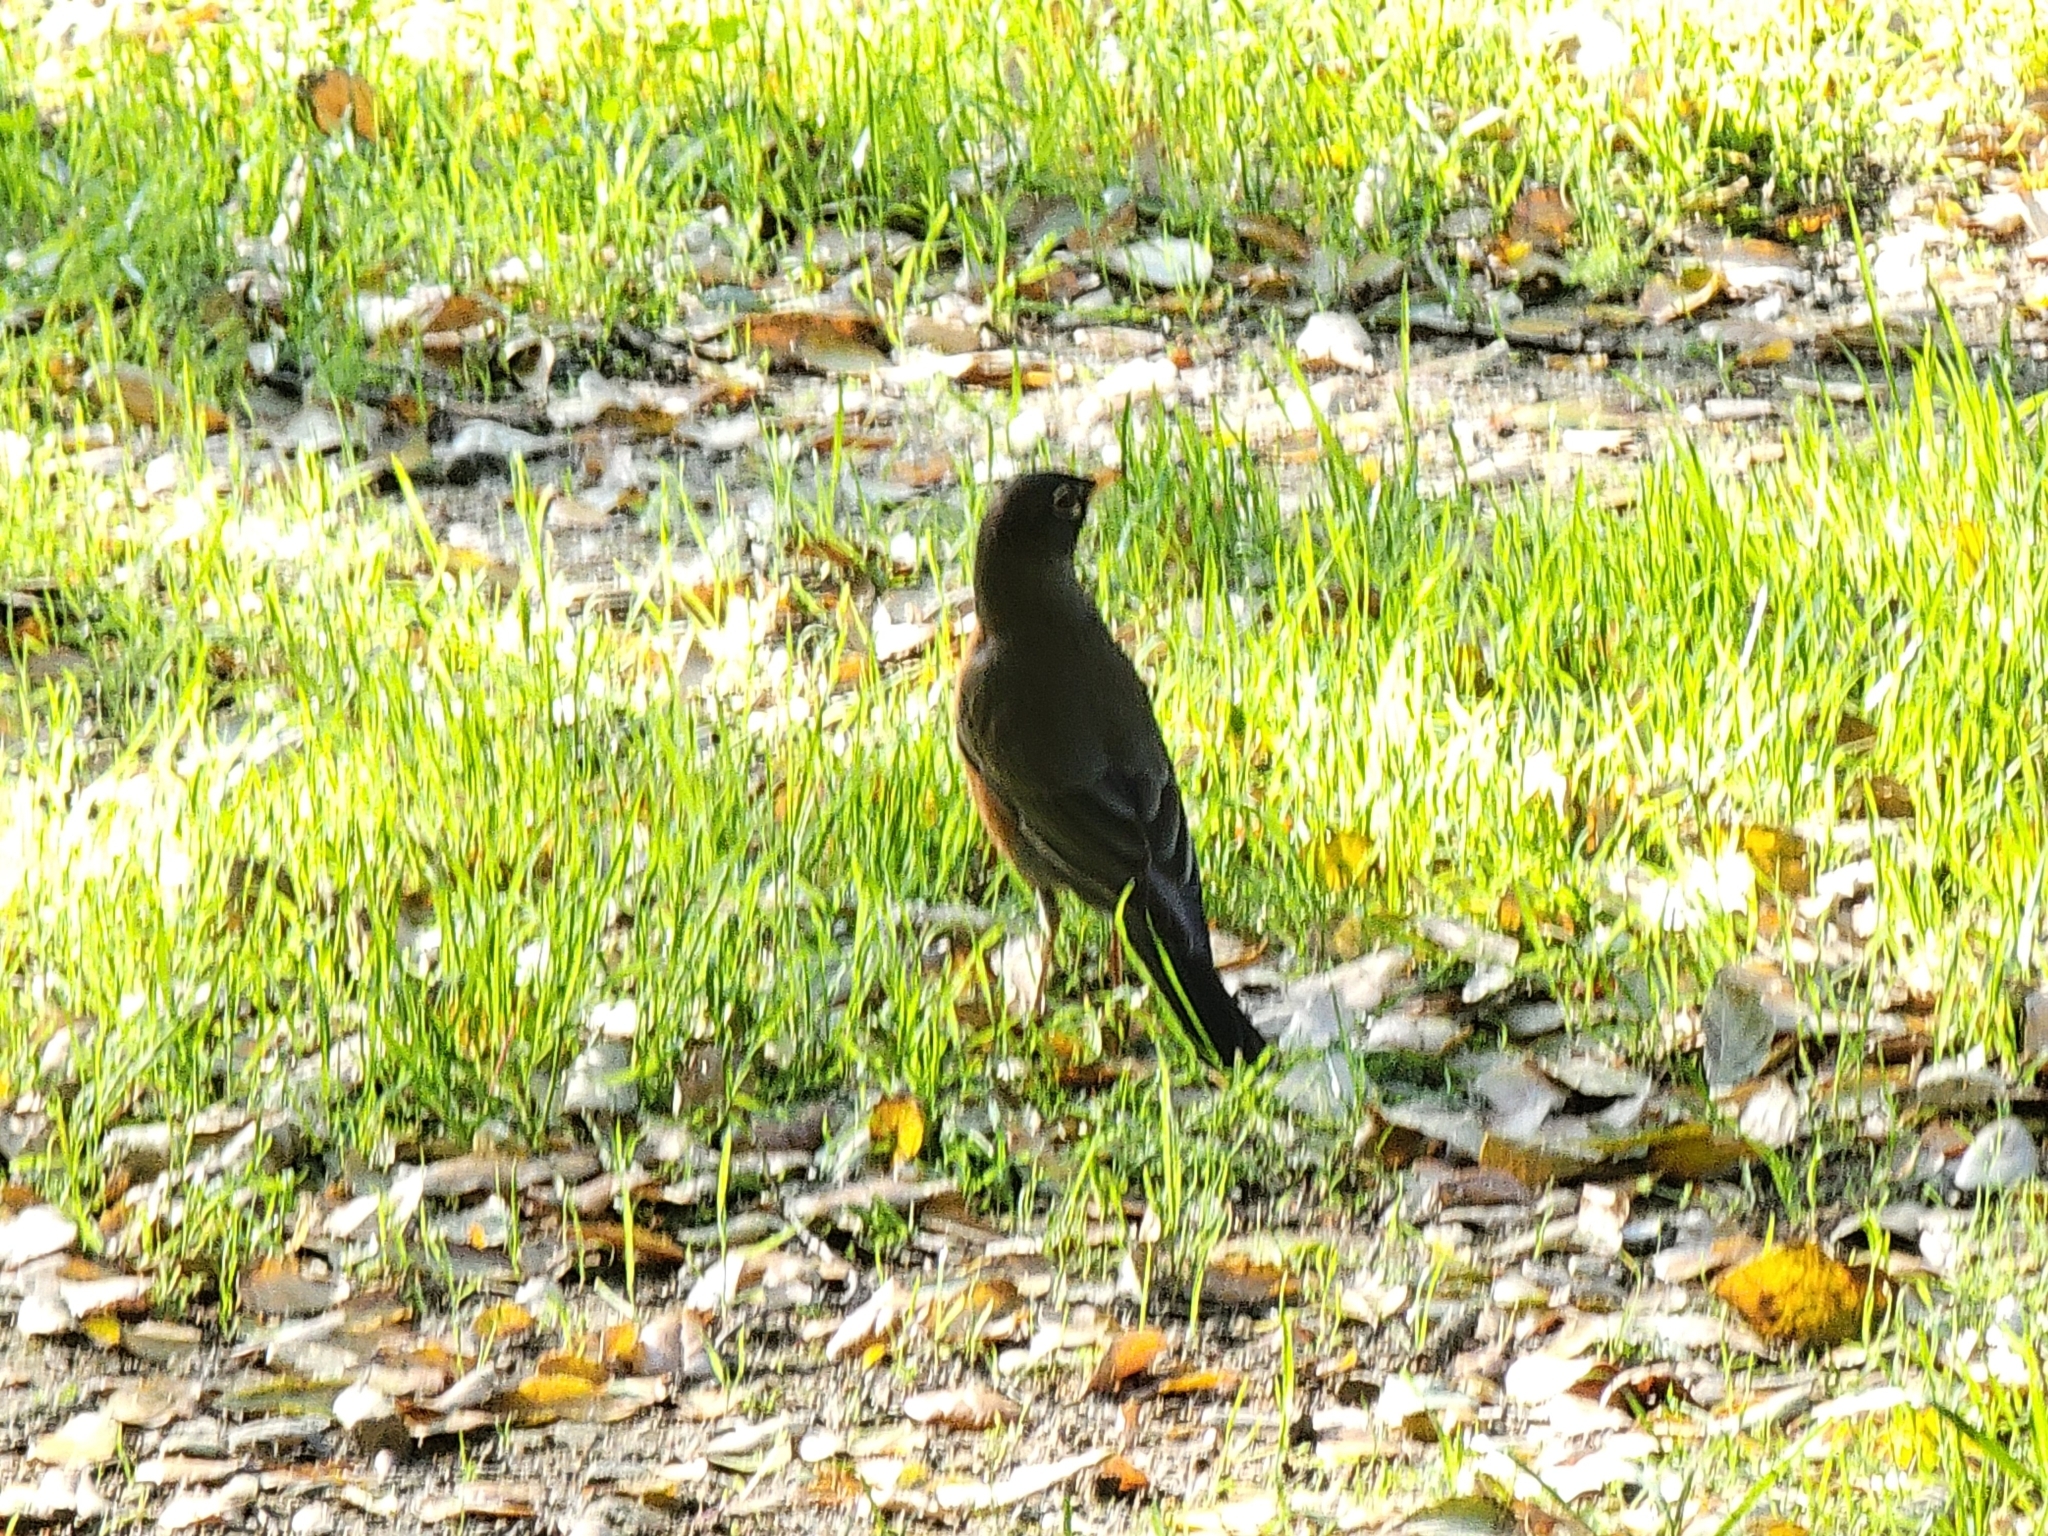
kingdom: Animalia
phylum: Chordata
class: Aves
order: Passeriformes
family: Turdidae
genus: Turdus
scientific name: Turdus migratorius
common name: American robin
